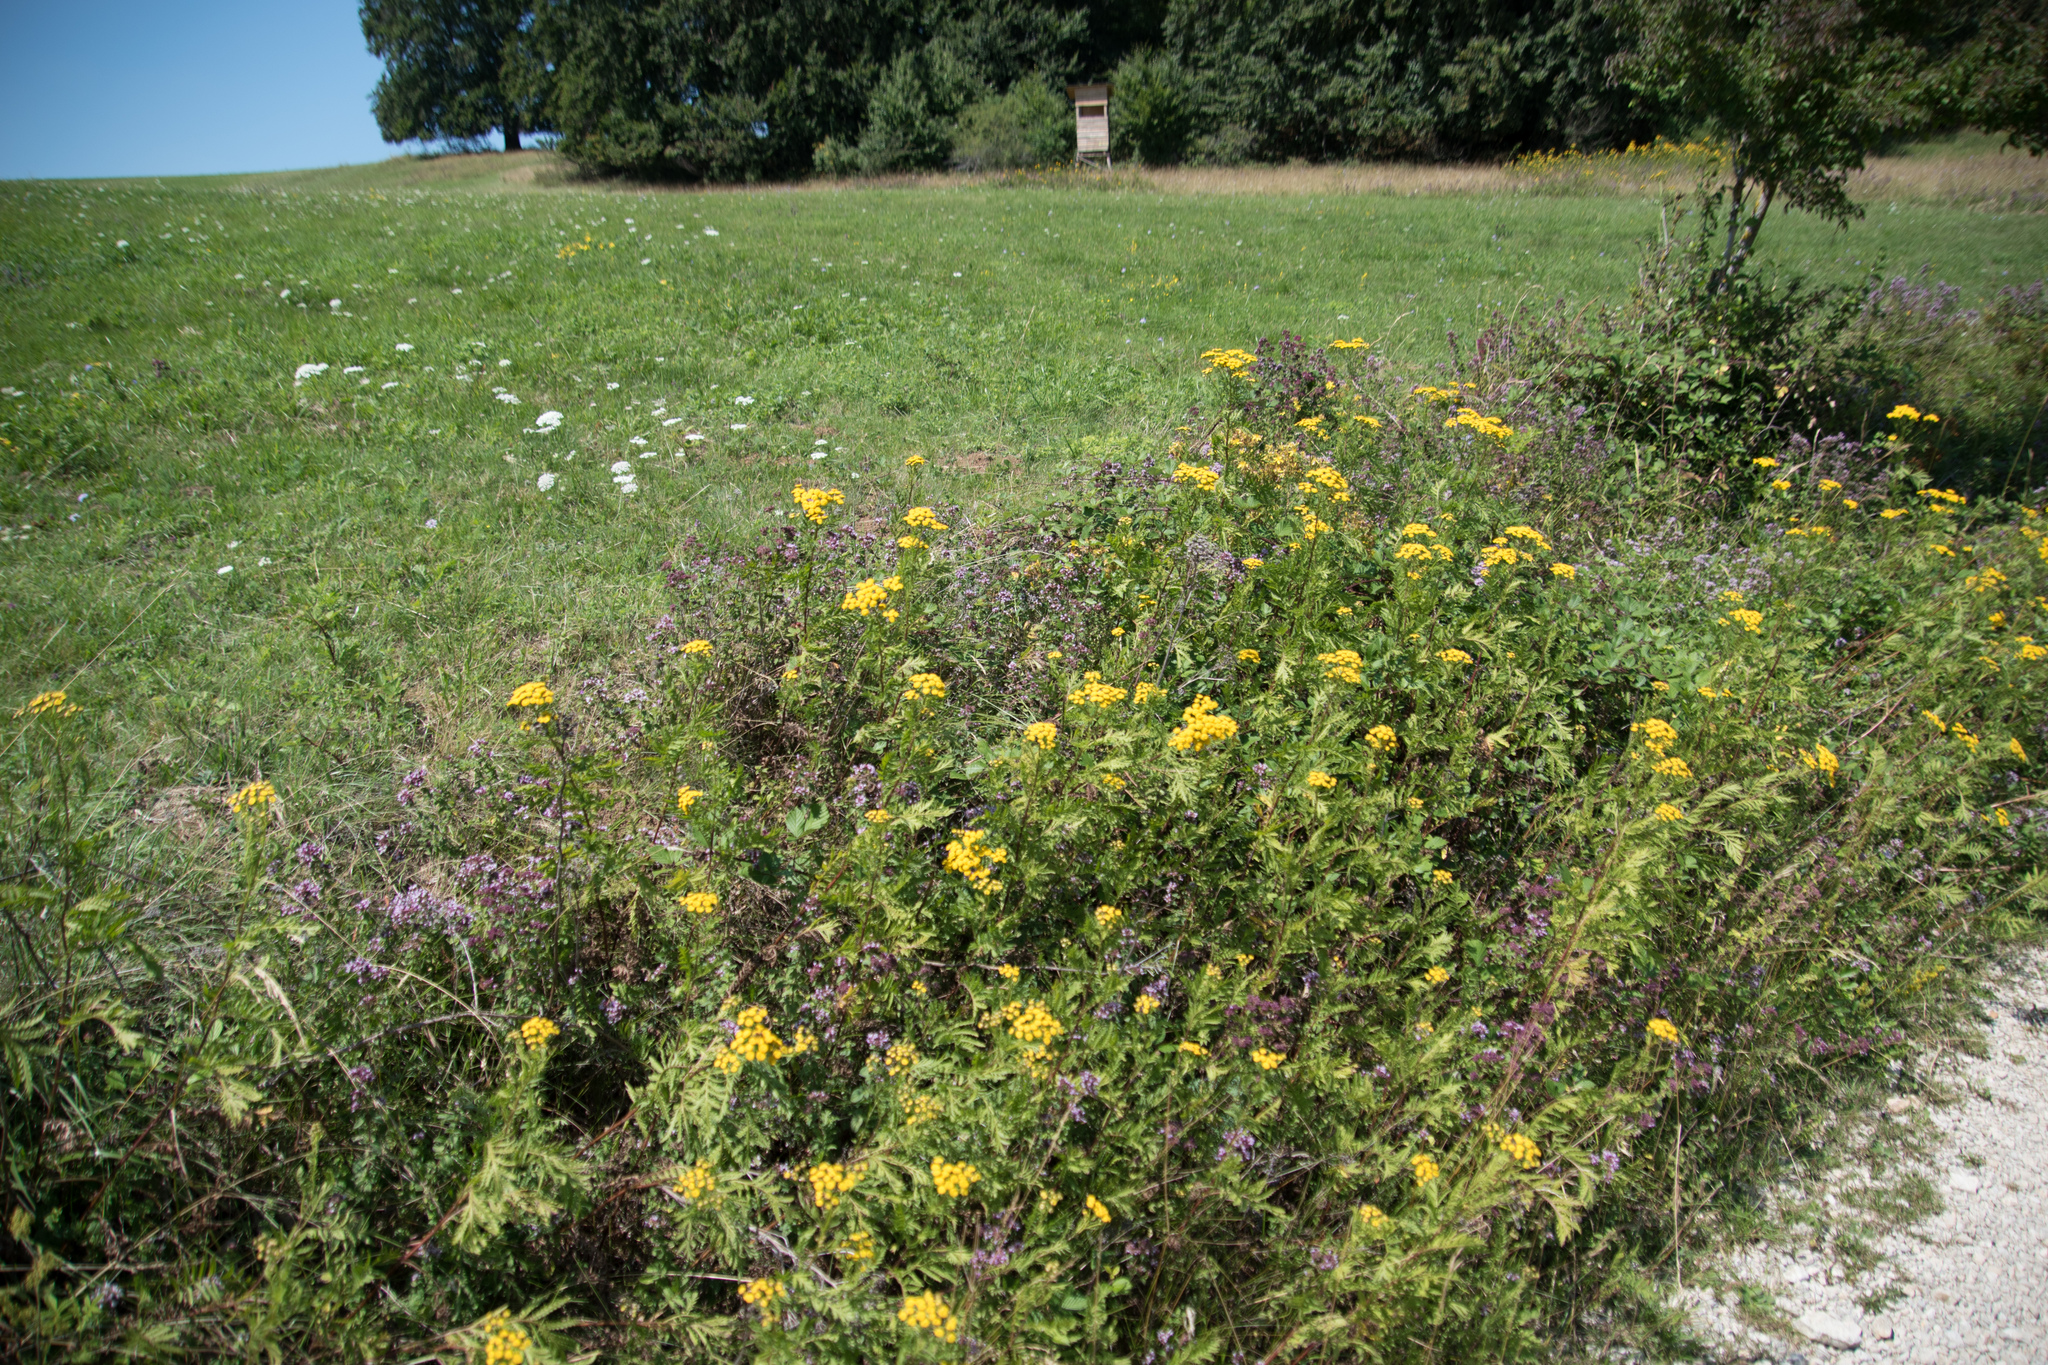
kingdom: Plantae
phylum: Tracheophyta
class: Magnoliopsida
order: Asterales
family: Asteraceae
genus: Tanacetum
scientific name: Tanacetum vulgare
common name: Common tansy
